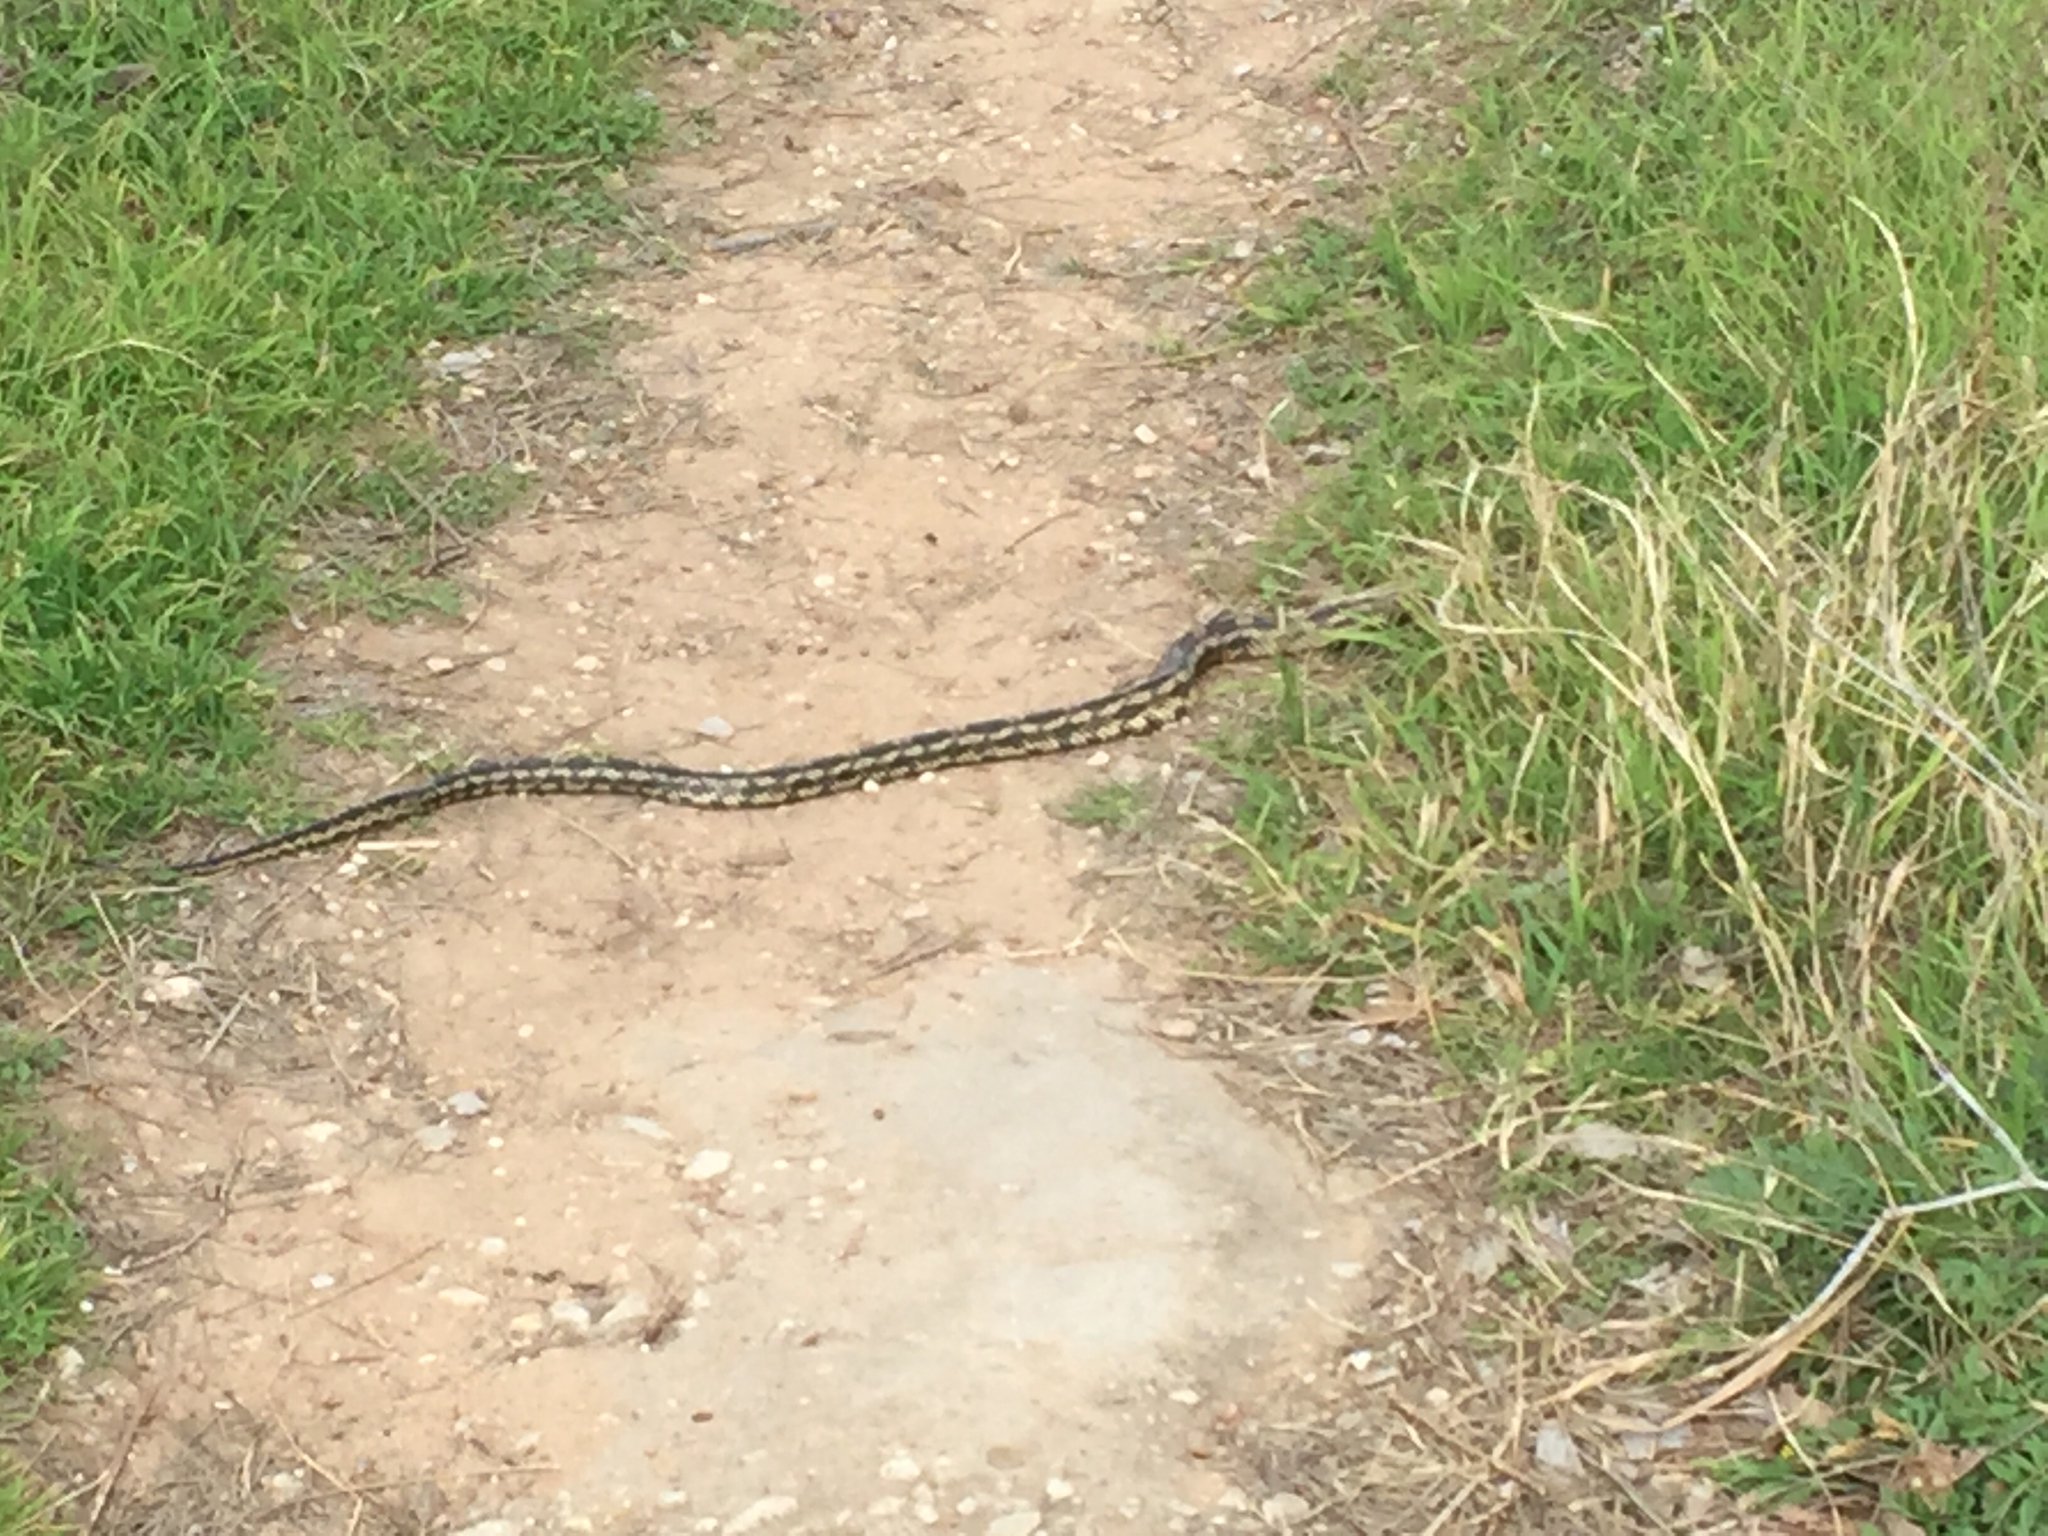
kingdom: Animalia
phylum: Chordata
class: Squamata
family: Colubridae
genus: Pantherophis
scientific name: Pantherophis obsoletus
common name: Black rat snake
